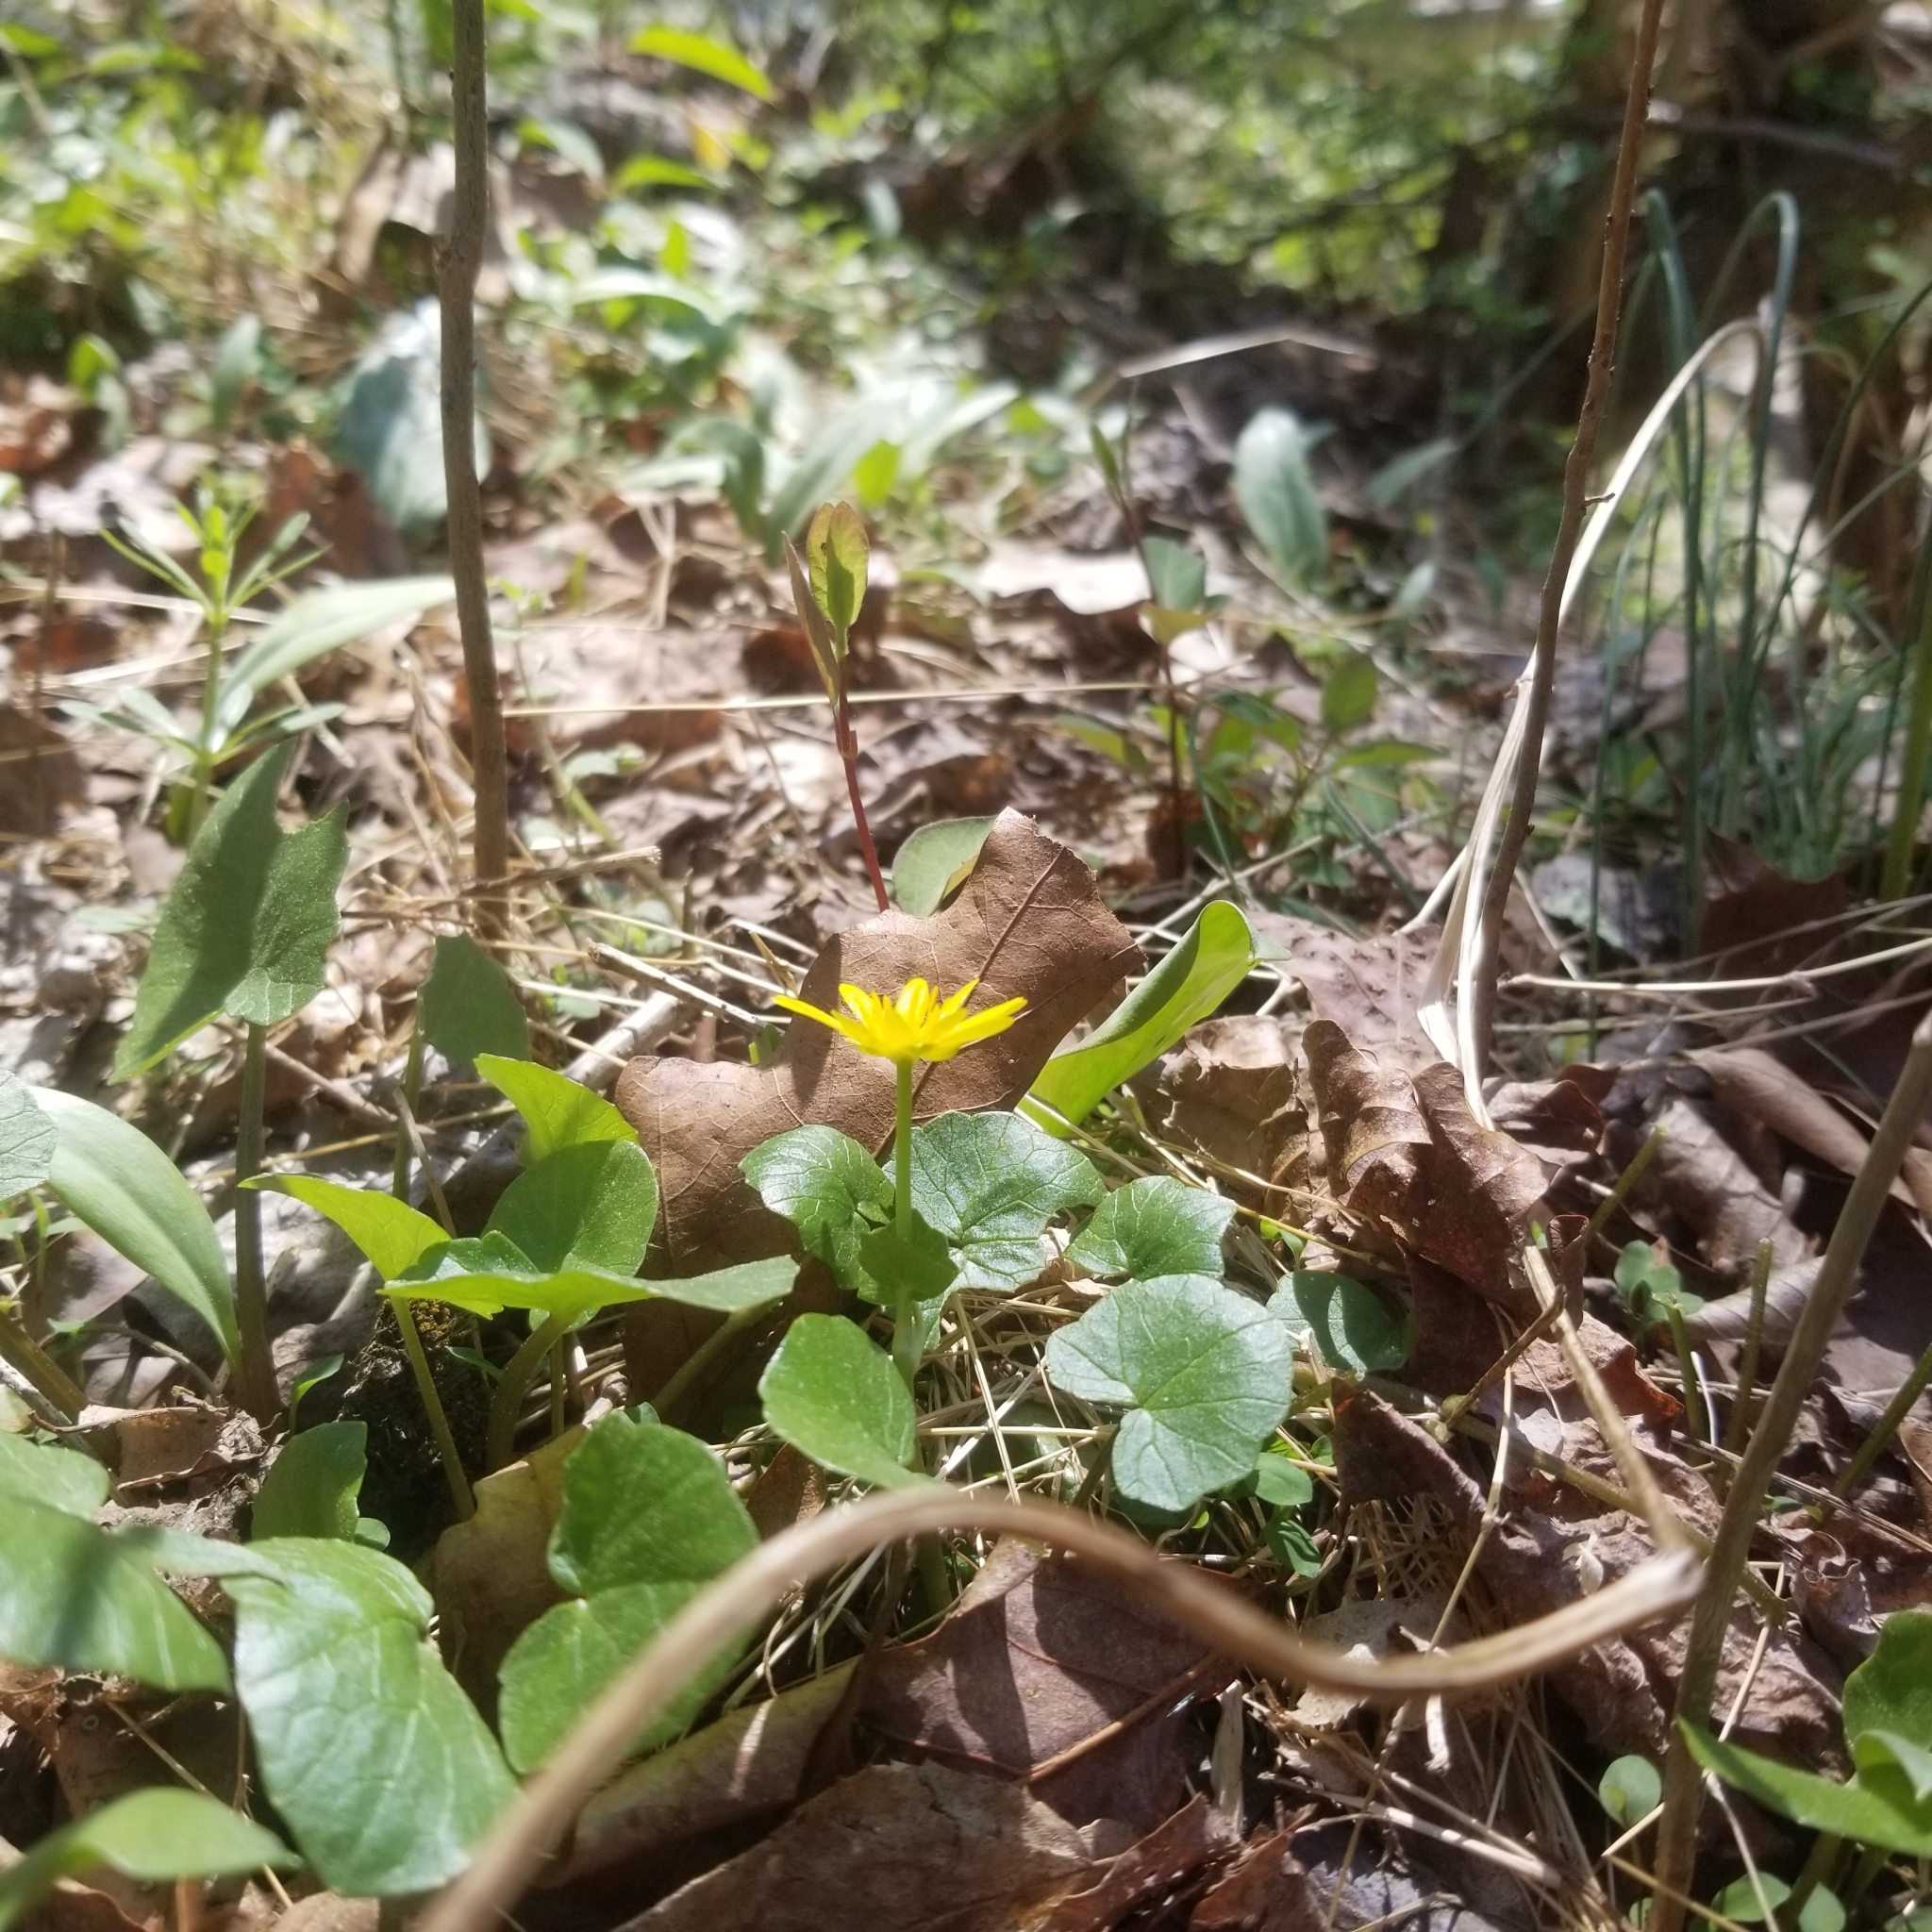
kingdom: Plantae
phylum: Tracheophyta
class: Magnoliopsida
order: Ranunculales
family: Ranunculaceae
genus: Ficaria
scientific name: Ficaria verna
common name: Lesser celandine
